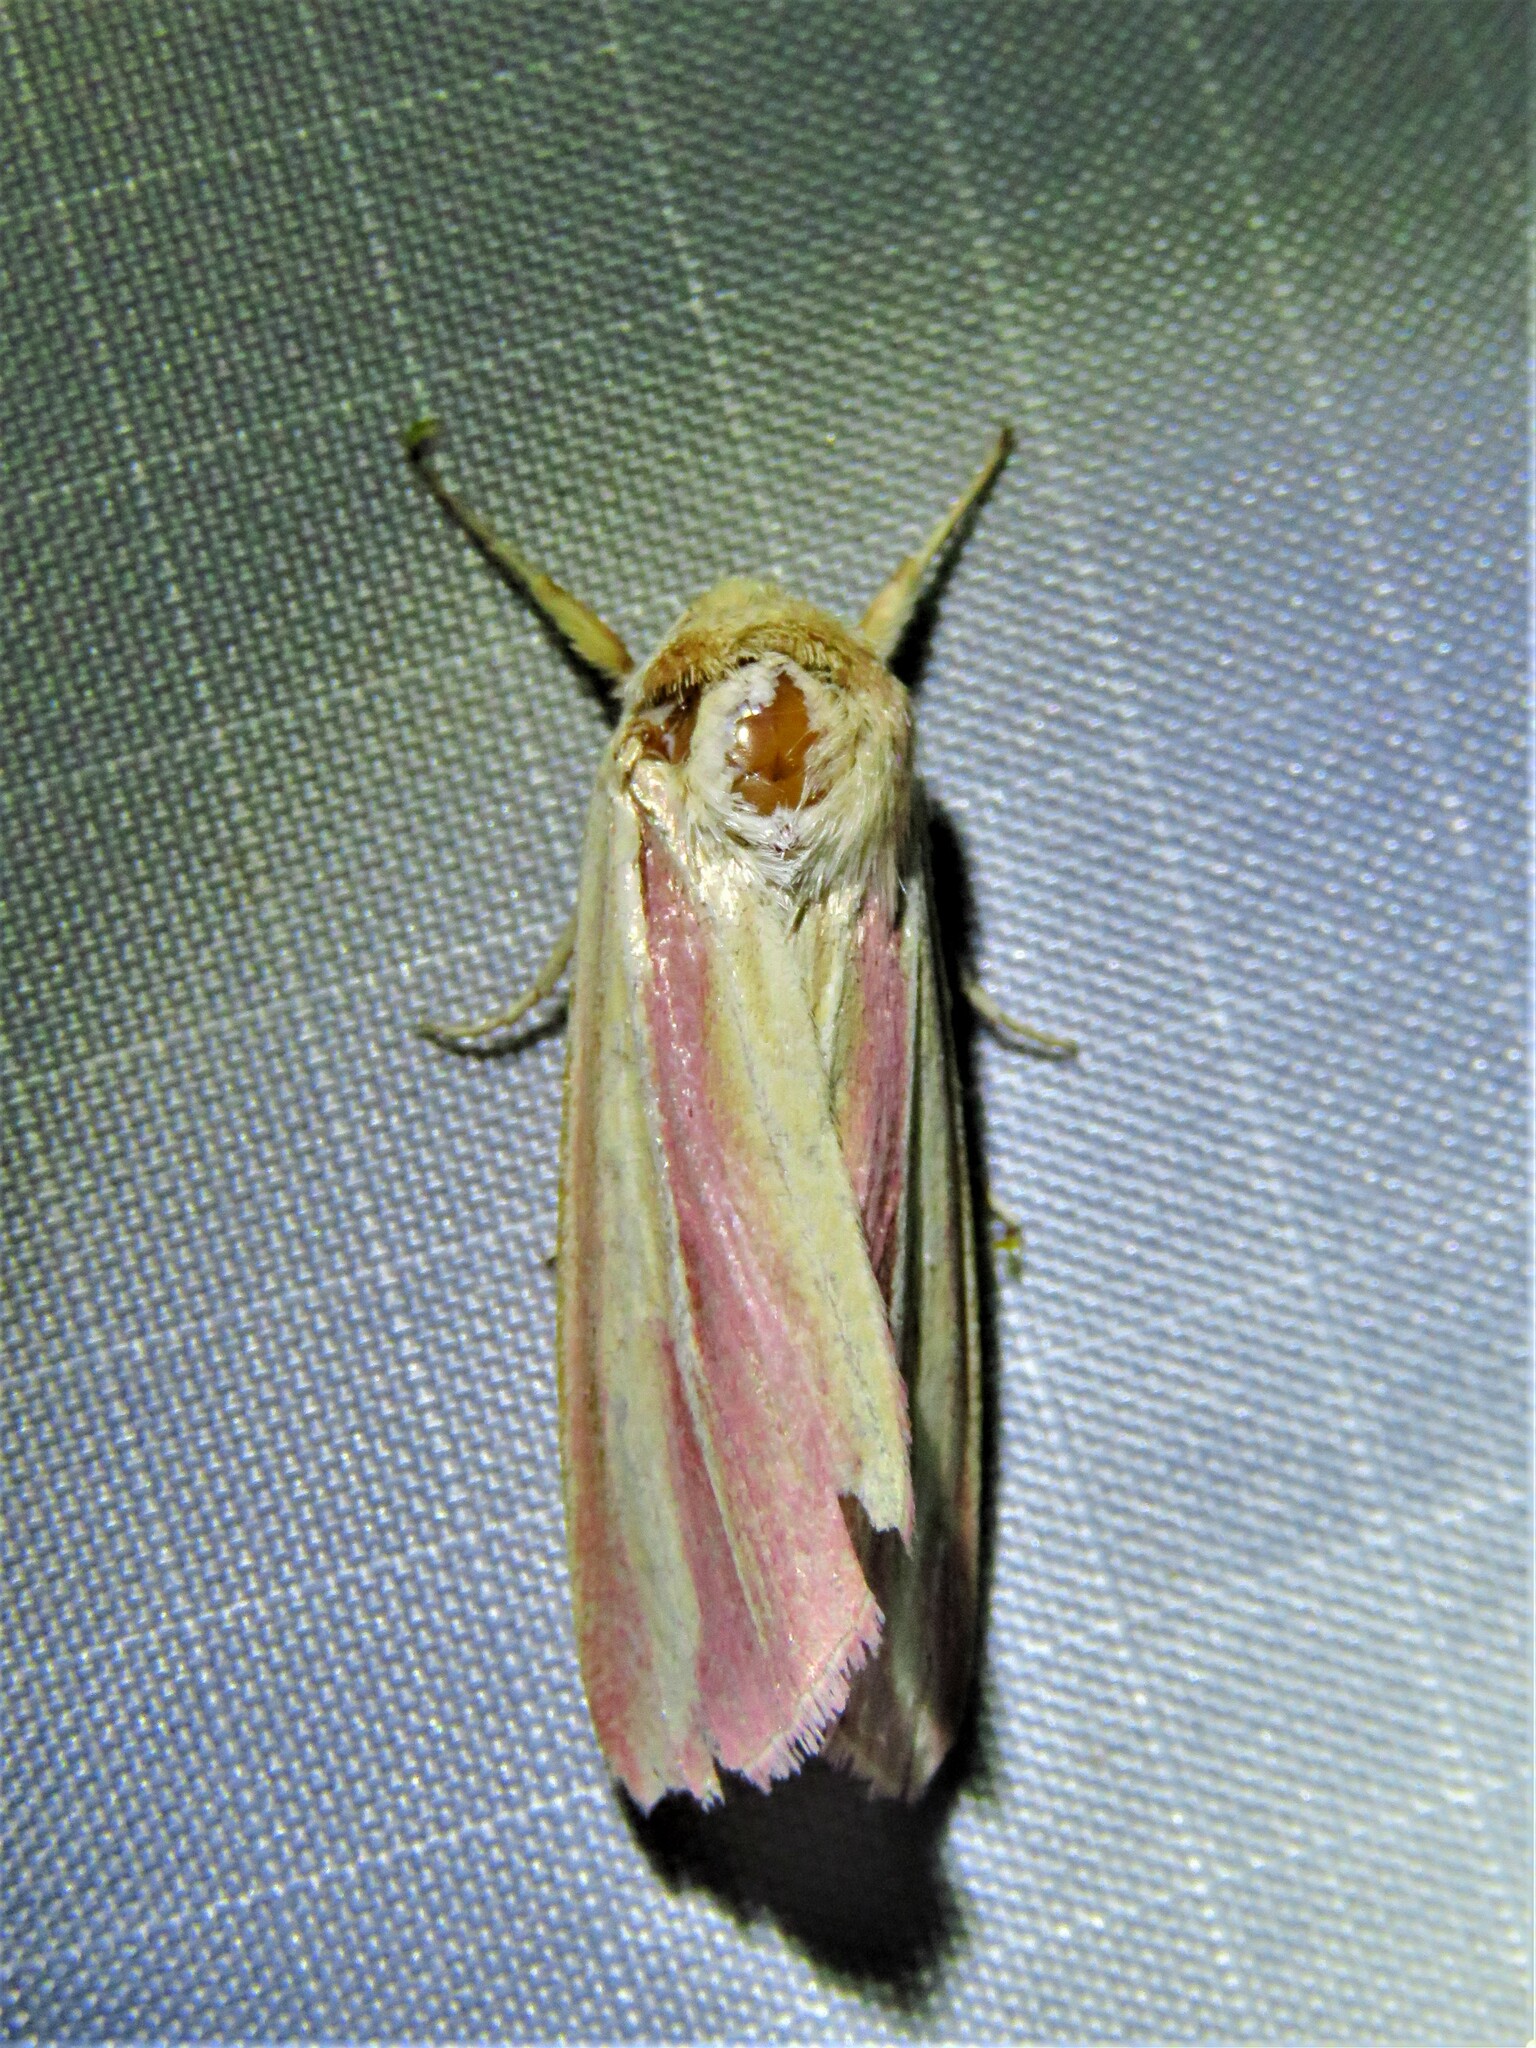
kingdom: Animalia
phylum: Arthropoda
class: Insecta
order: Lepidoptera
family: Noctuidae
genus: Dargida
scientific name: Dargida rubripennis
